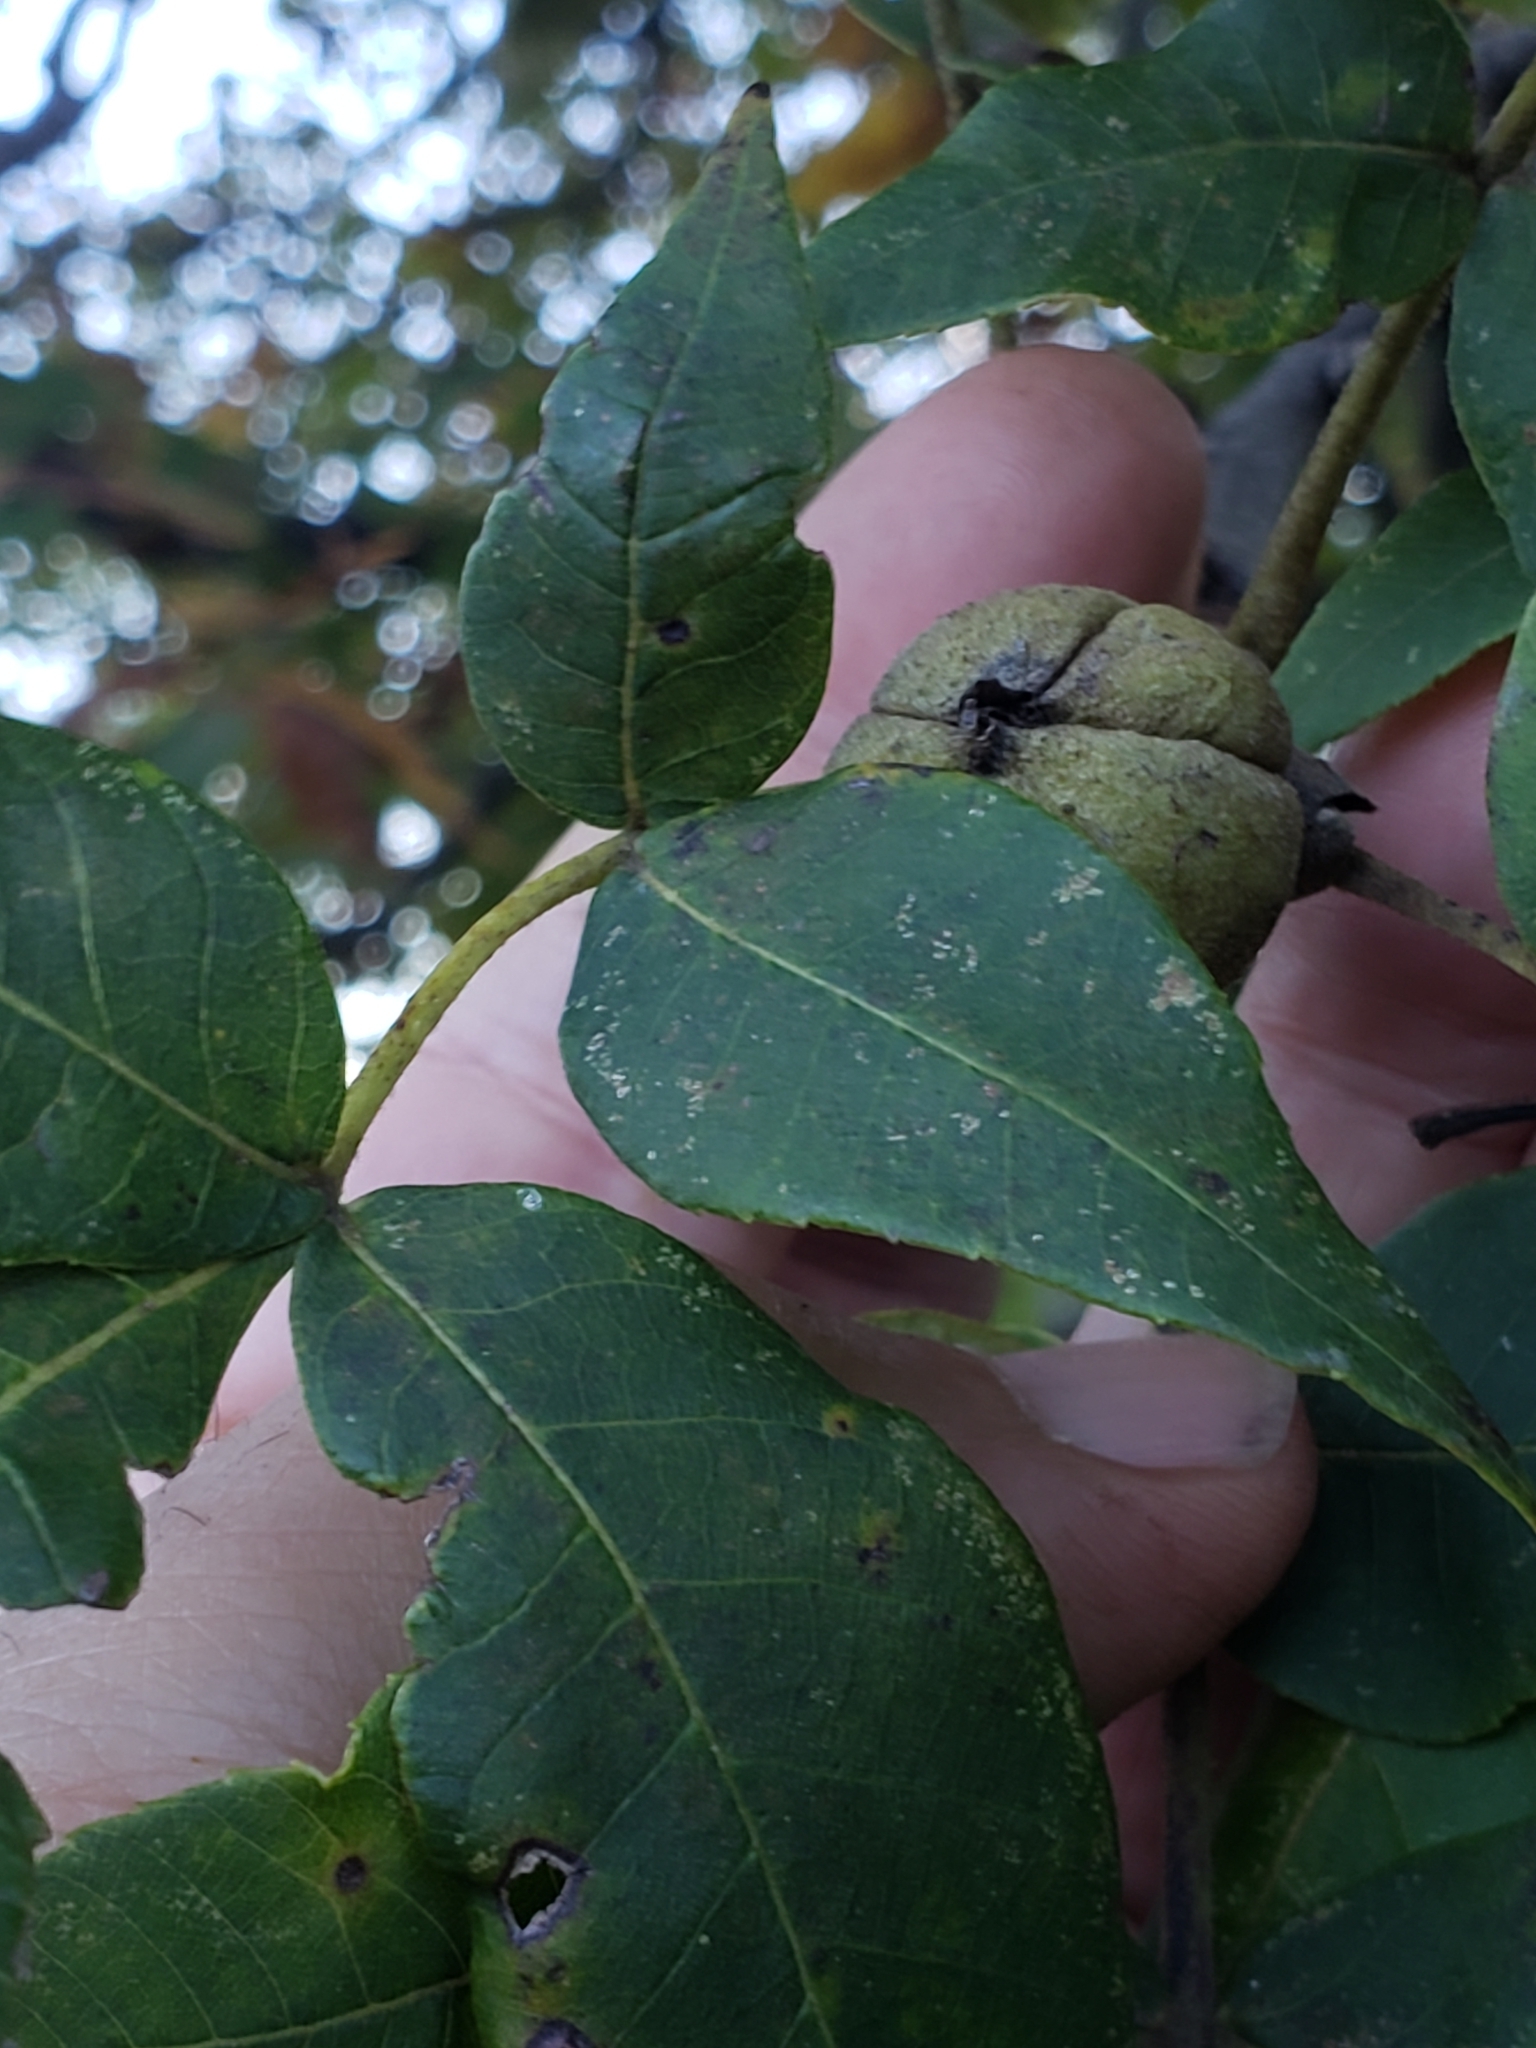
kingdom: Plantae
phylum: Tracheophyta
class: Magnoliopsida
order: Fagales
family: Juglandaceae
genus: Carya
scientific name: Carya alba
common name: Mockernut hickory
